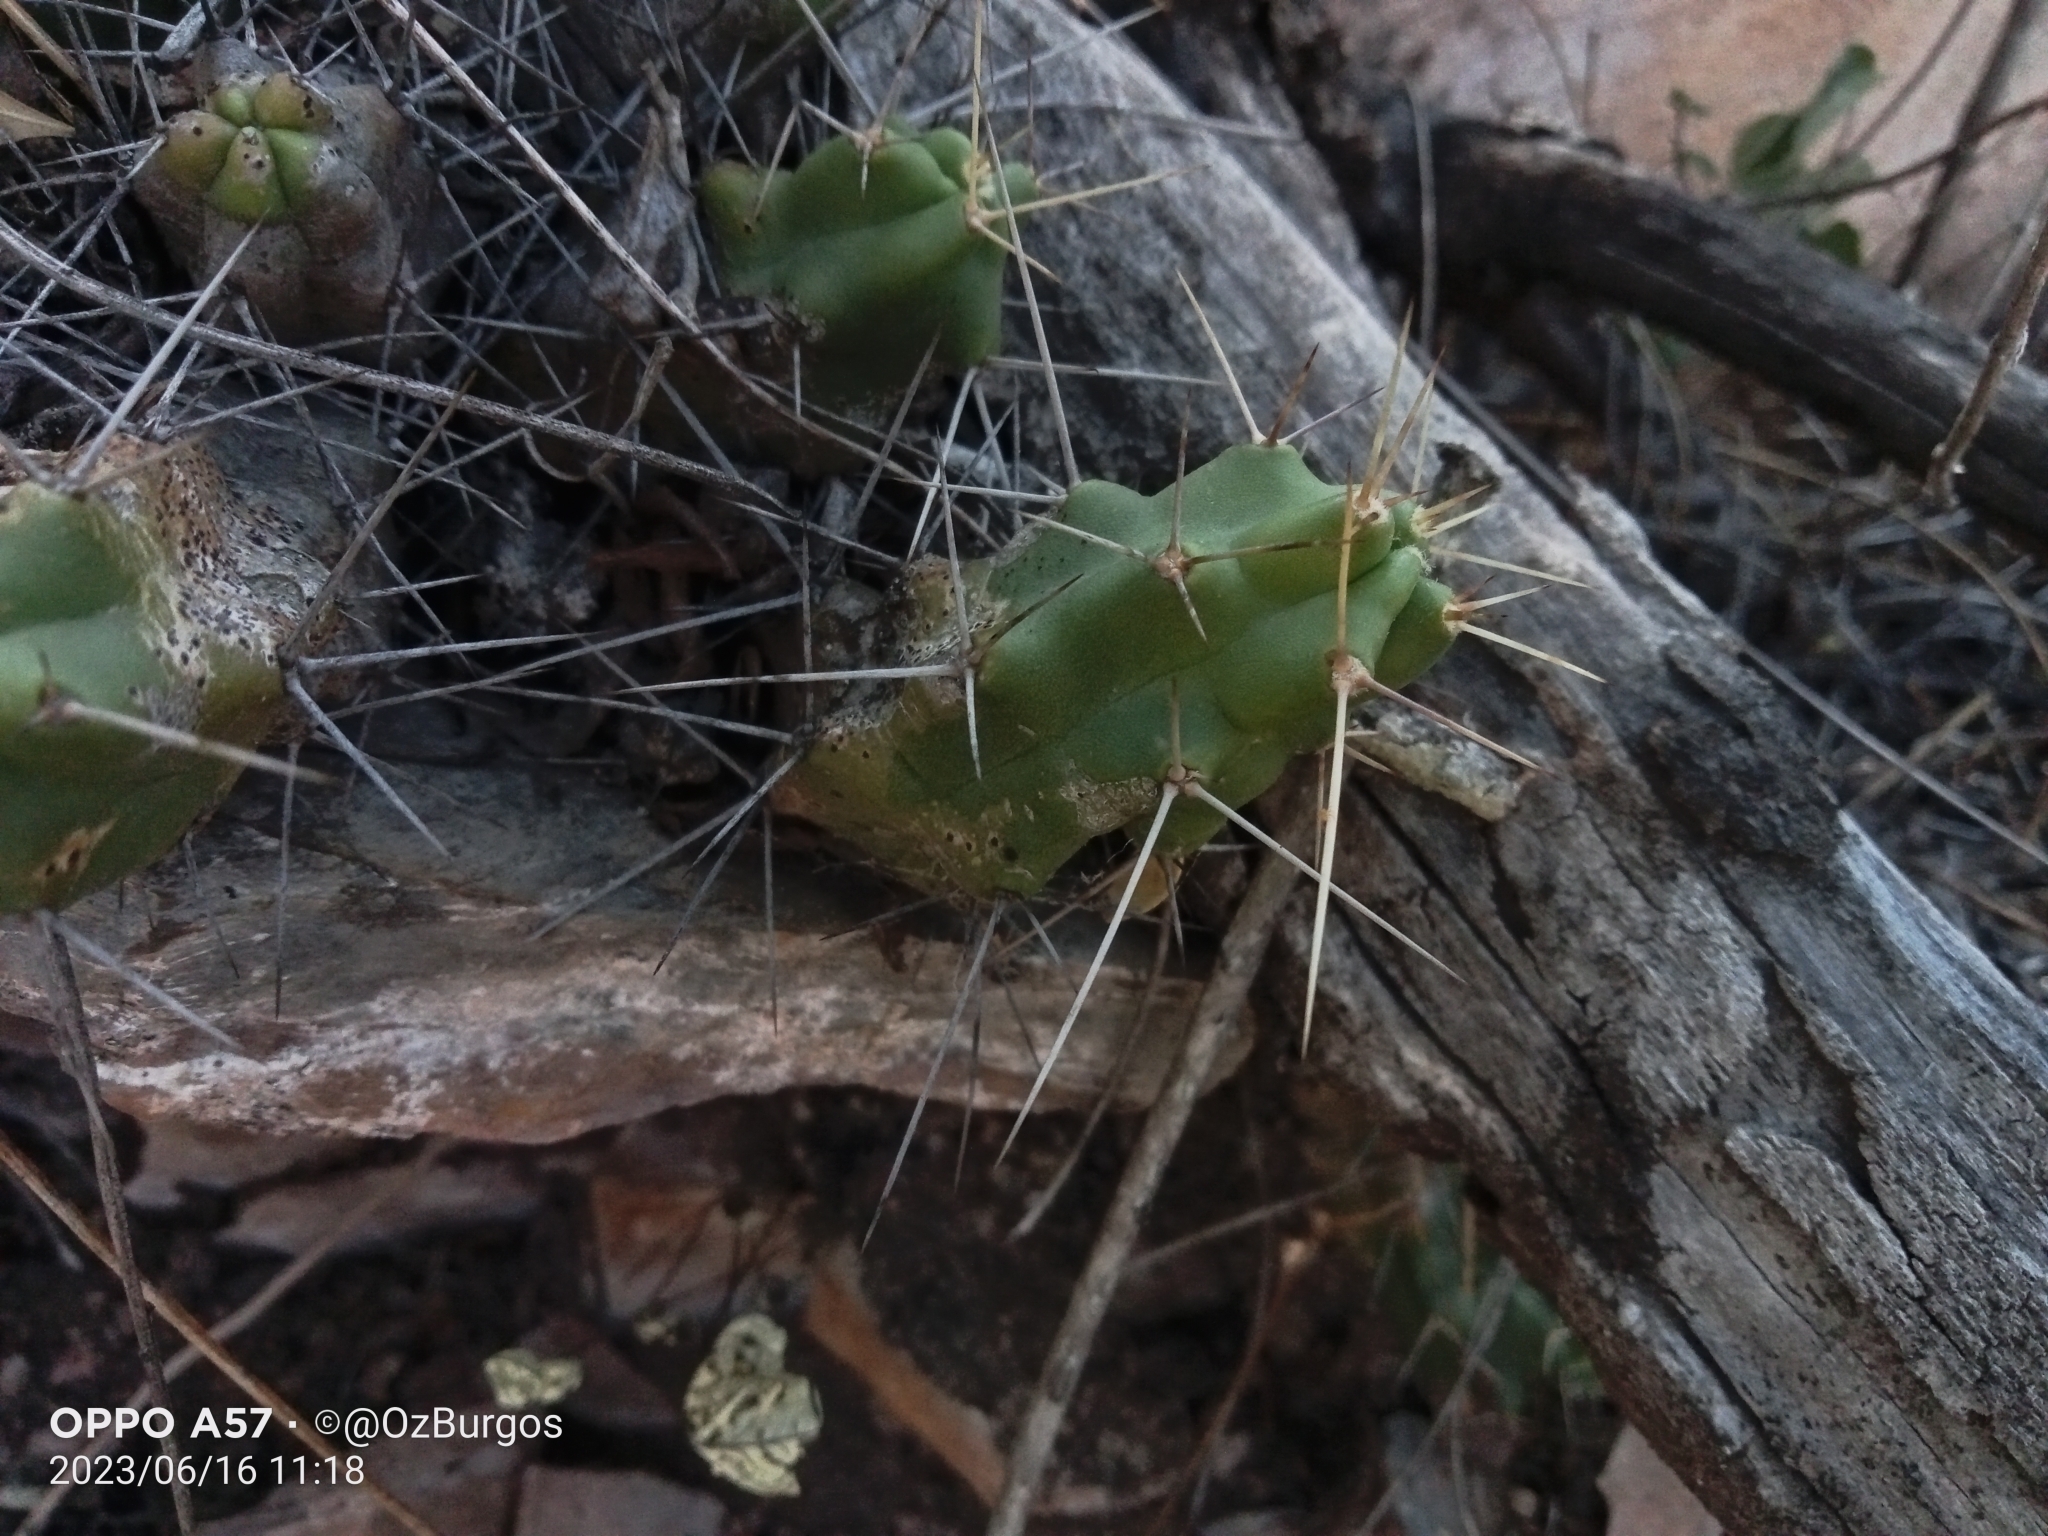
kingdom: Plantae
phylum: Tracheophyta
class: Magnoliopsida
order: Caryophyllales
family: Cactaceae
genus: Echinocereus
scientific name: Echinocereus pentalophus
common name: Ladyfinger cactus
